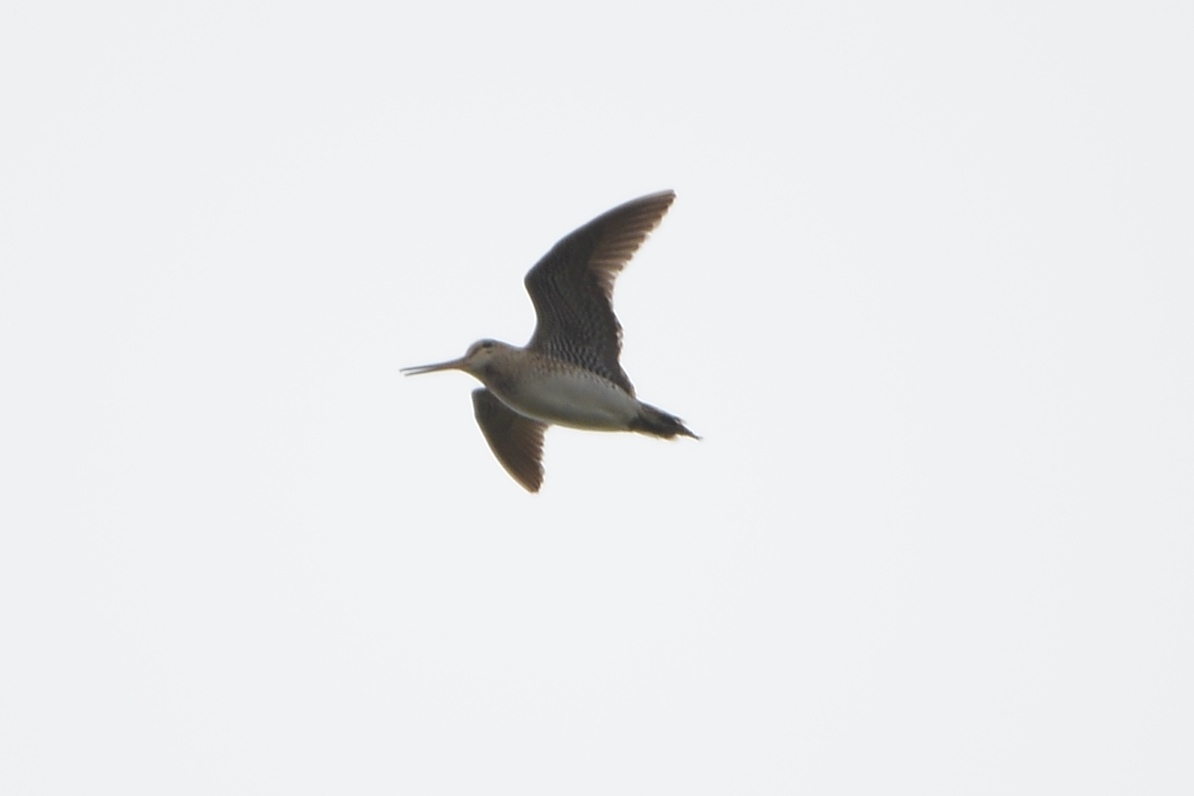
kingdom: Animalia
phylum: Chordata
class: Aves
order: Charadriiformes
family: Scolopacidae
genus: Gallinago
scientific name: Gallinago stenura
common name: Pin-tailed snipe
